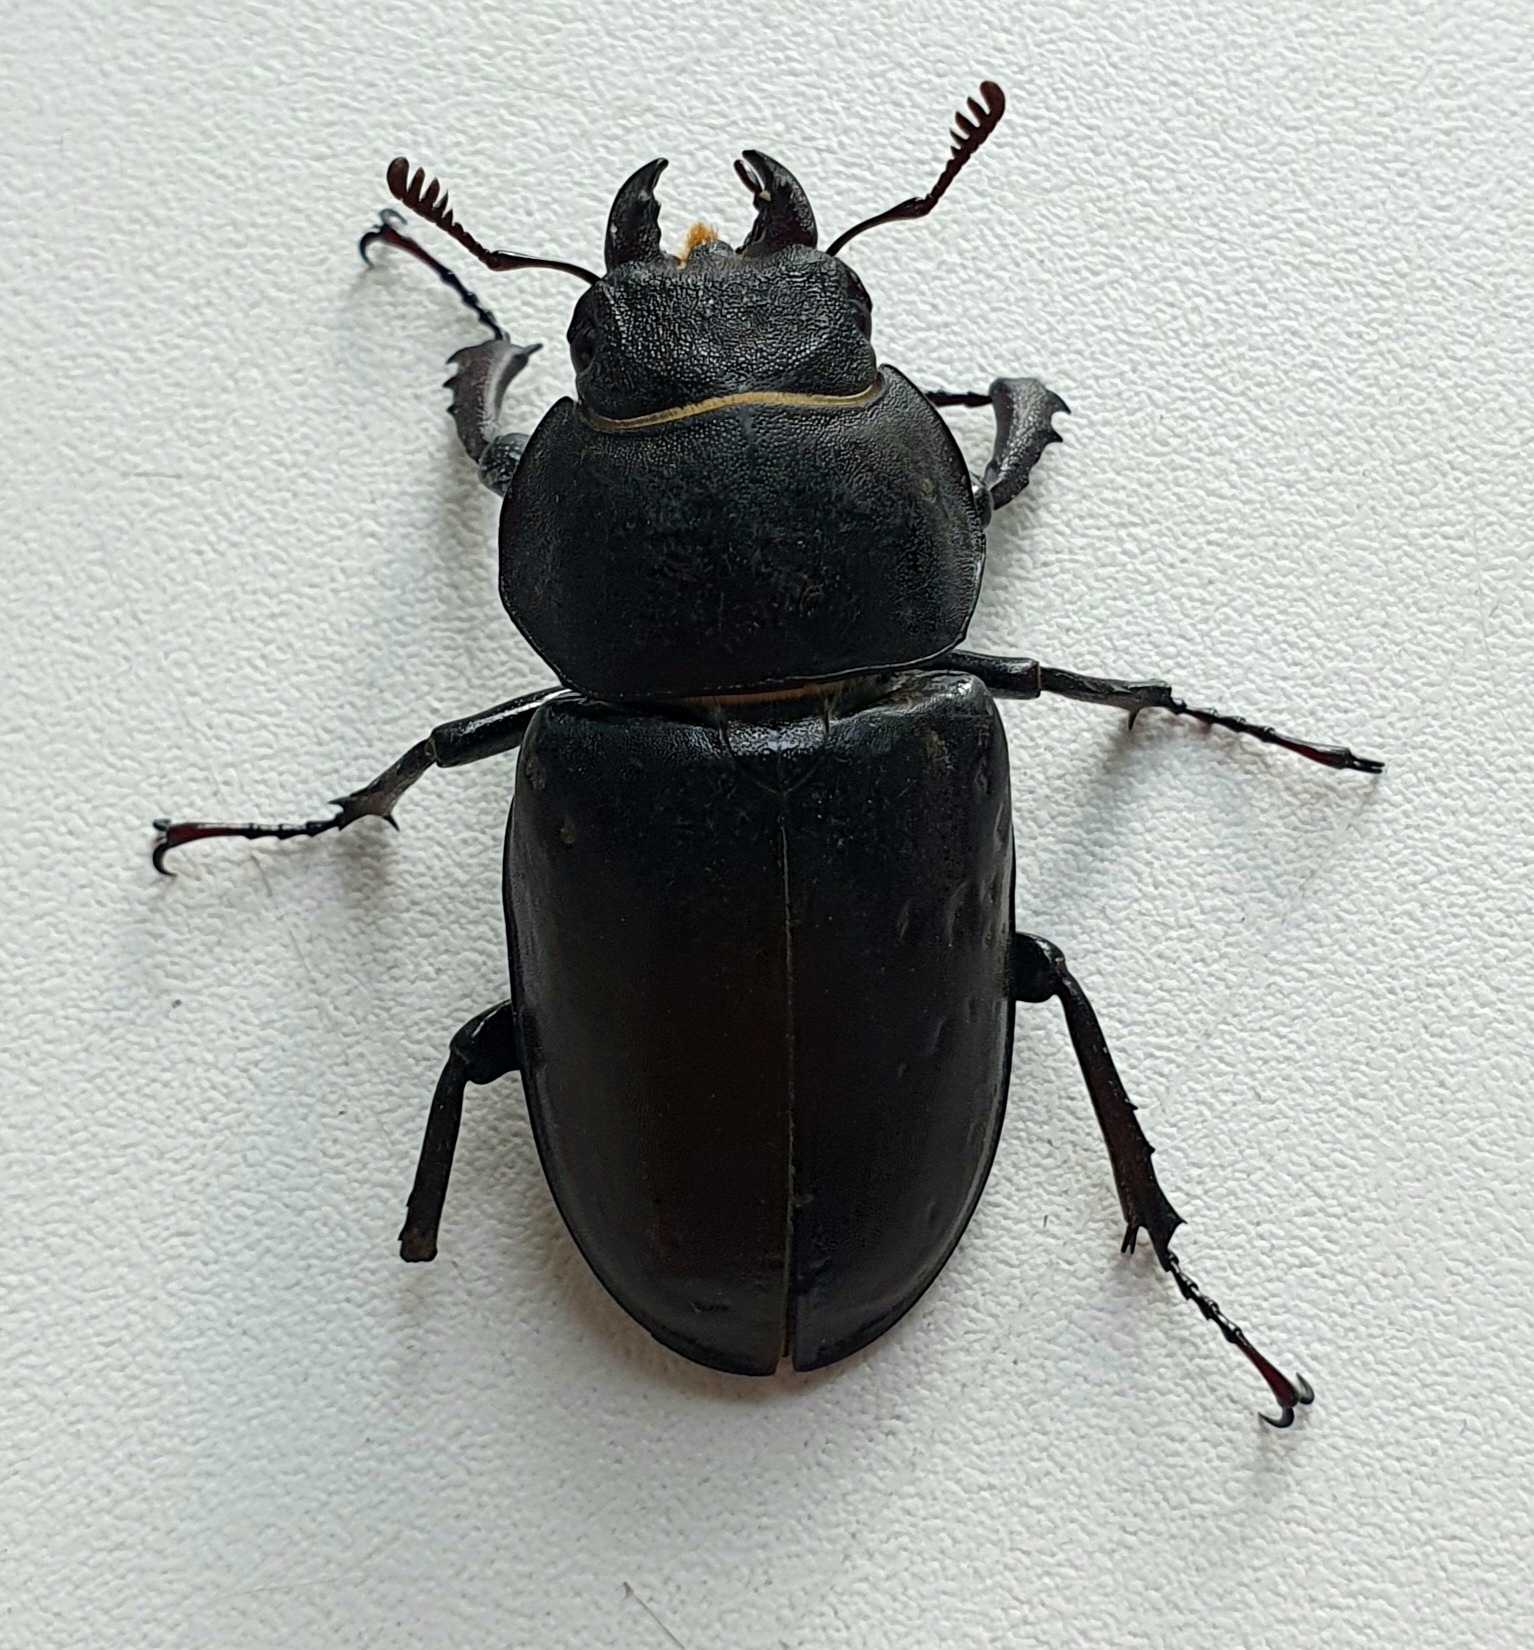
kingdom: Animalia
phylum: Arthropoda
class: Insecta
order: Coleoptera
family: Lucanidae
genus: Lucanus
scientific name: Lucanus cervus
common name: Stag beetle
